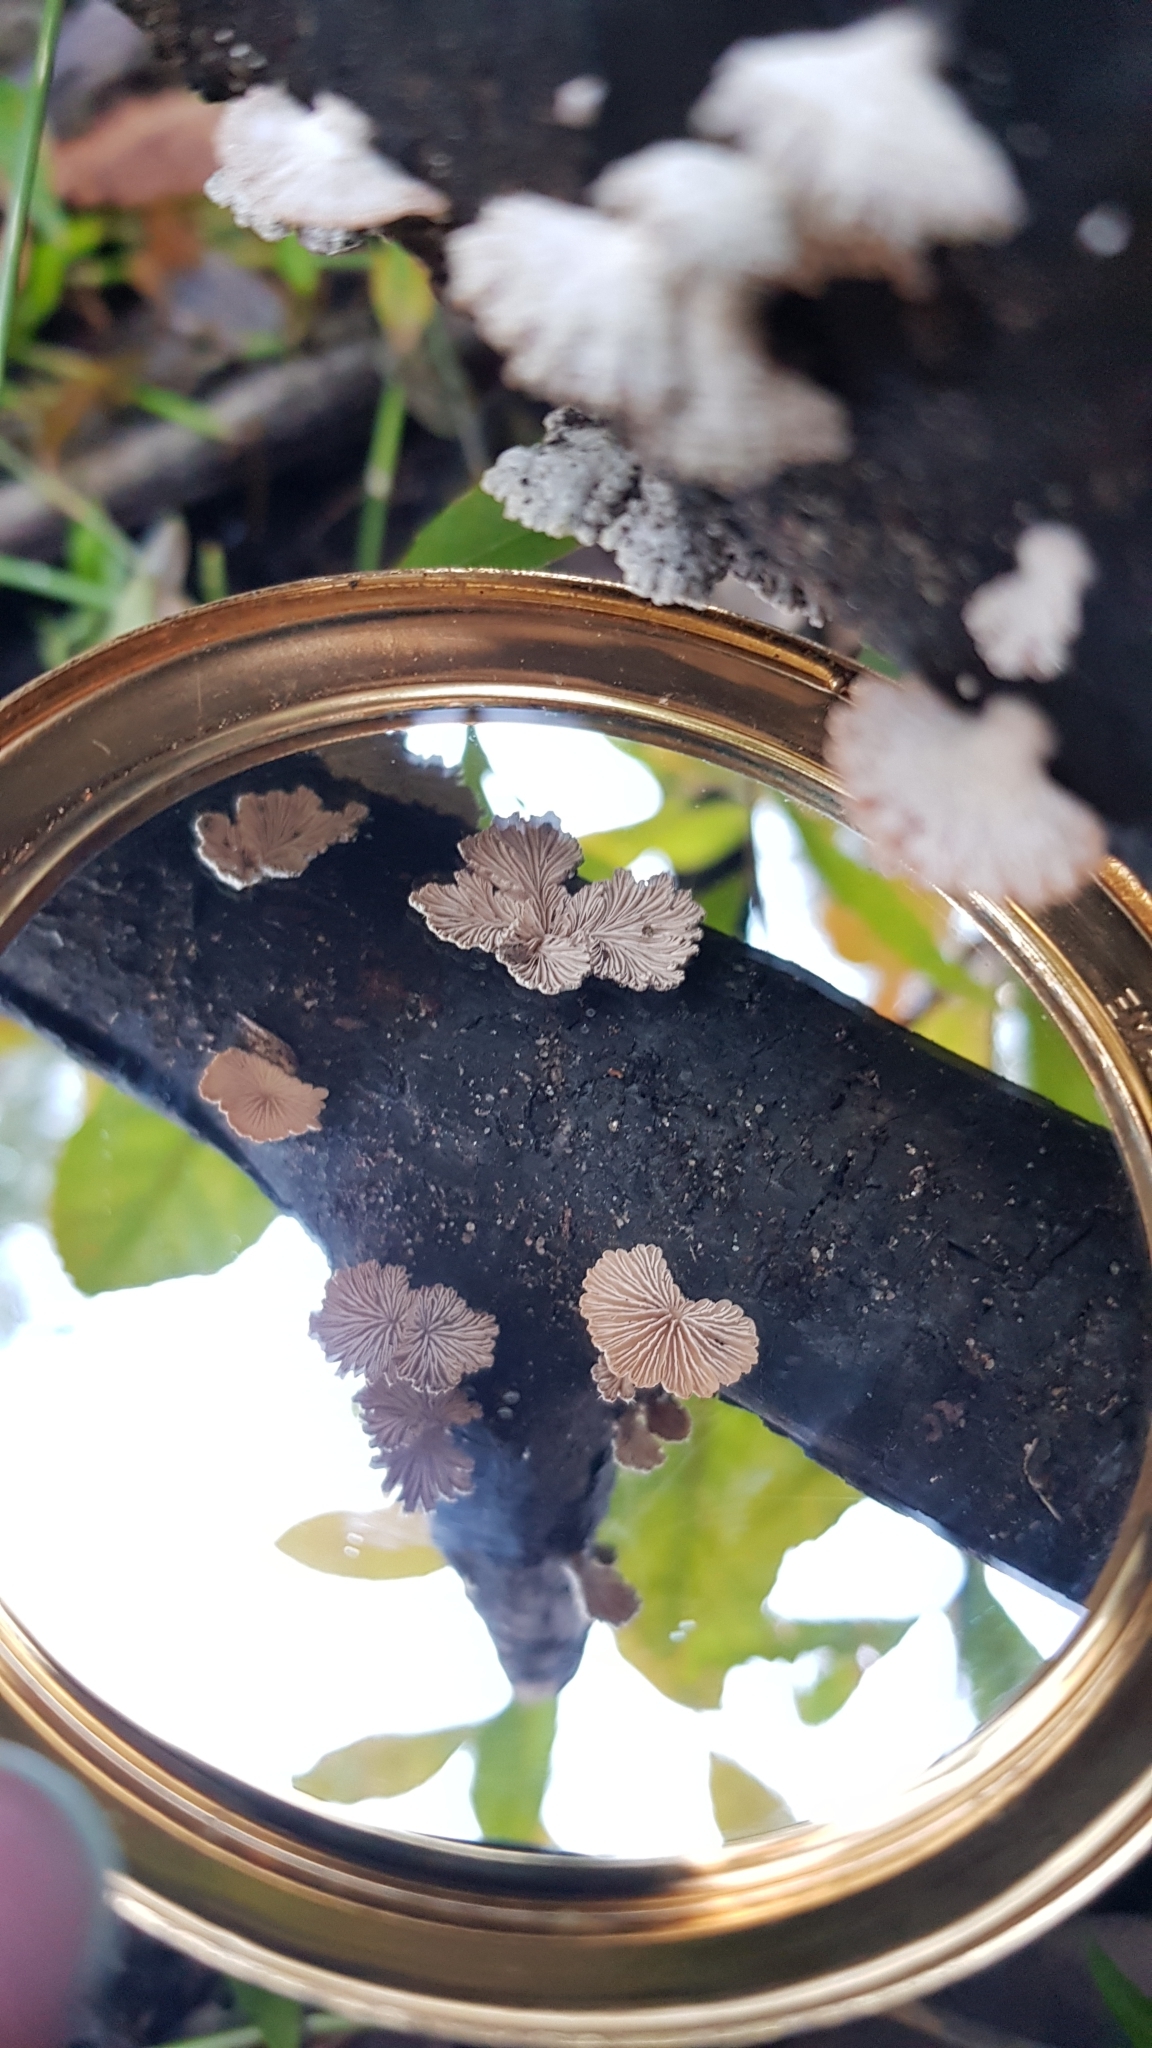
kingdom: Fungi
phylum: Basidiomycota
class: Agaricomycetes
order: Agaricales
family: Schizophyllaceae
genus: Schizophyllum
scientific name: Schizophyllum commune
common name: Common porecrust
